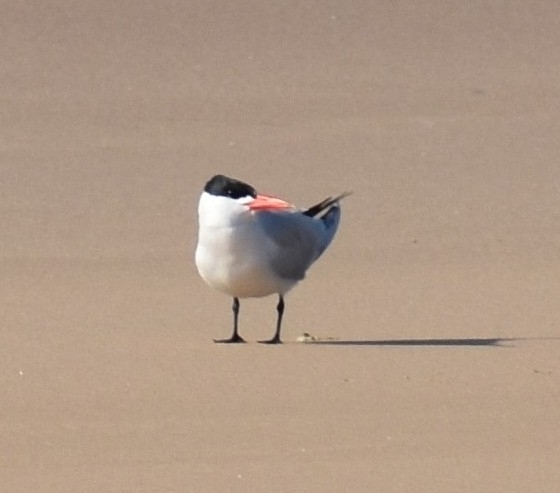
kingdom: Animalia
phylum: Chordata
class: Aves
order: Charadriiformes
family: Laridae
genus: Hydroprogne
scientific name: Hydroprogne caspia
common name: Caspian tern
